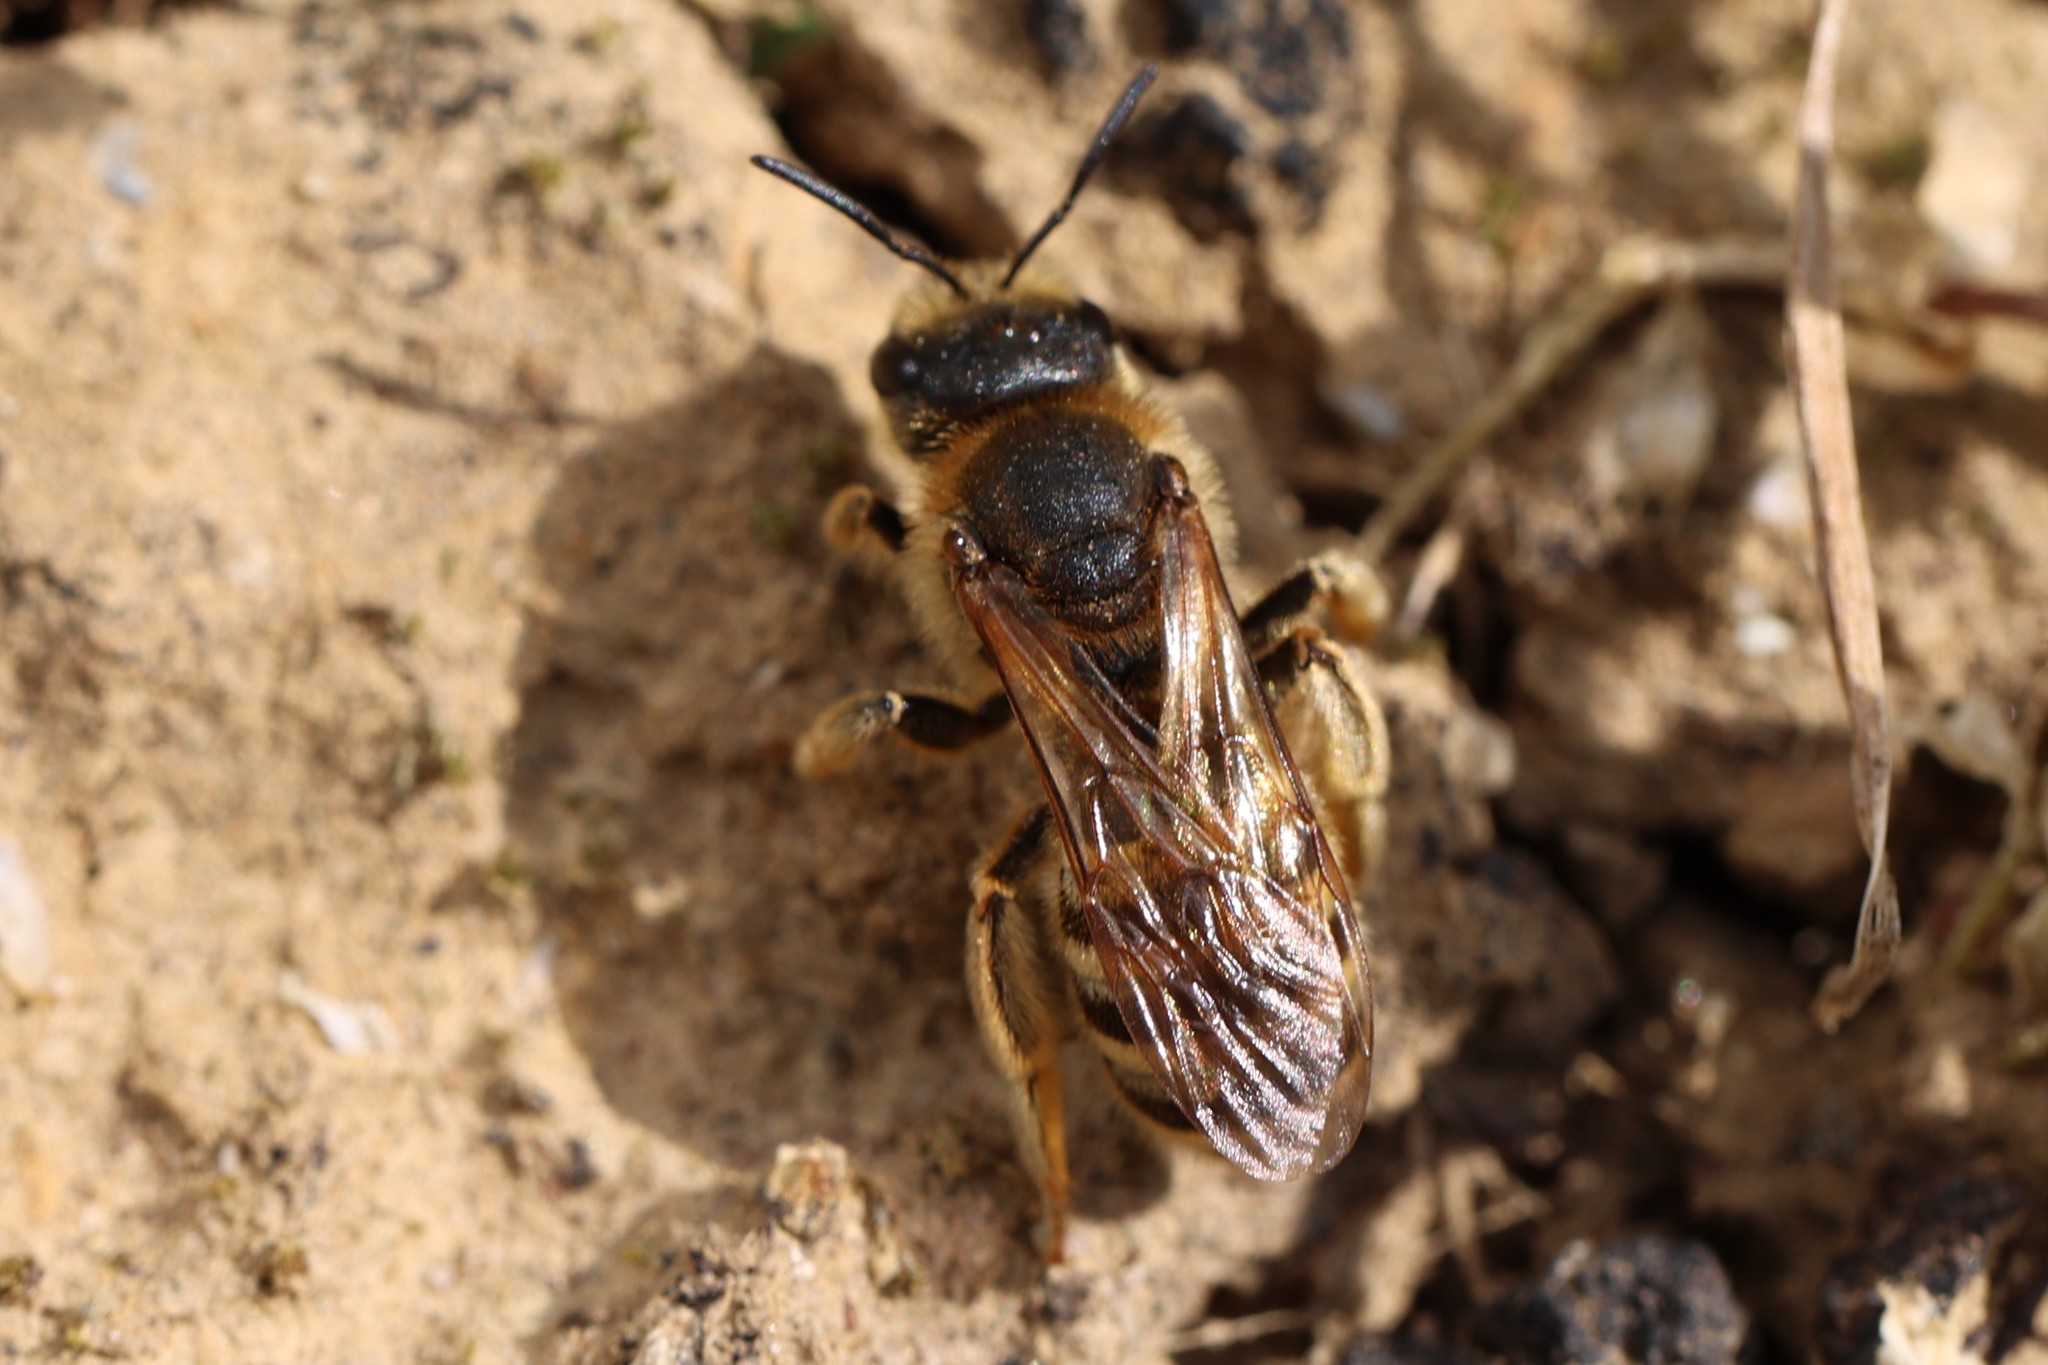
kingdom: Animalia
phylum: Arthropoda
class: Insecta
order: Hymenoptera
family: Halictidae
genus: Halictus
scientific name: Halictus scabiosae
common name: Great banded furrow bee
